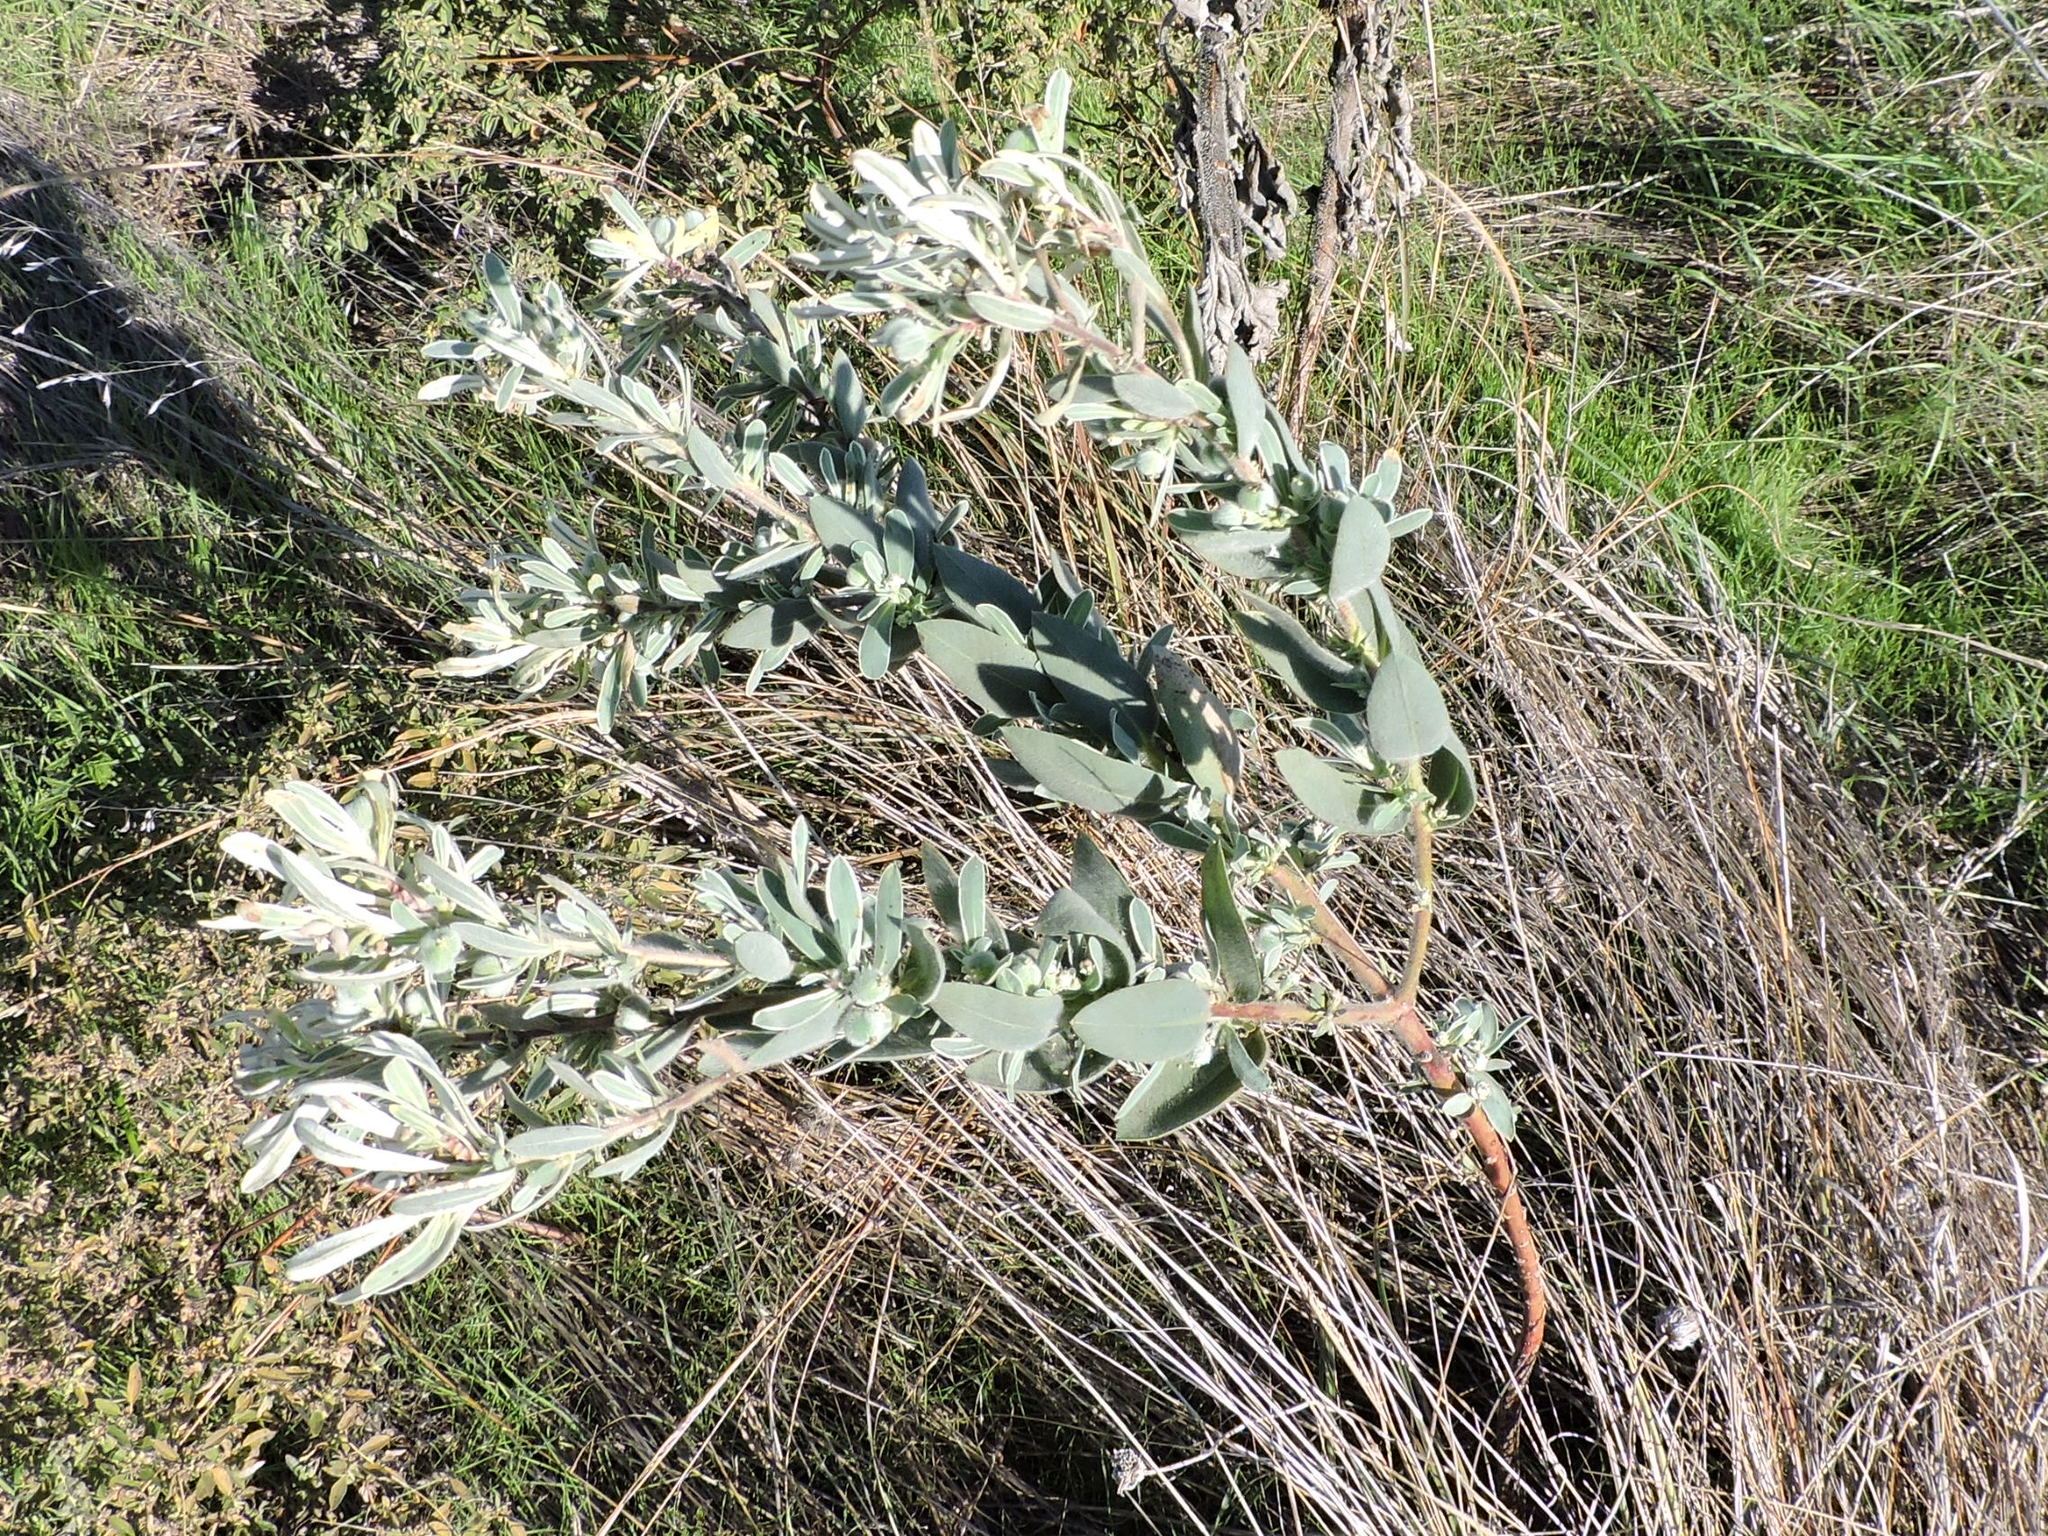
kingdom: Plantae
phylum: Tracheophyta
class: Magnoliopsida
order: Malpighiales
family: Euphorbiaceae
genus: Euphorbia
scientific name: Euphorbia bicolor
